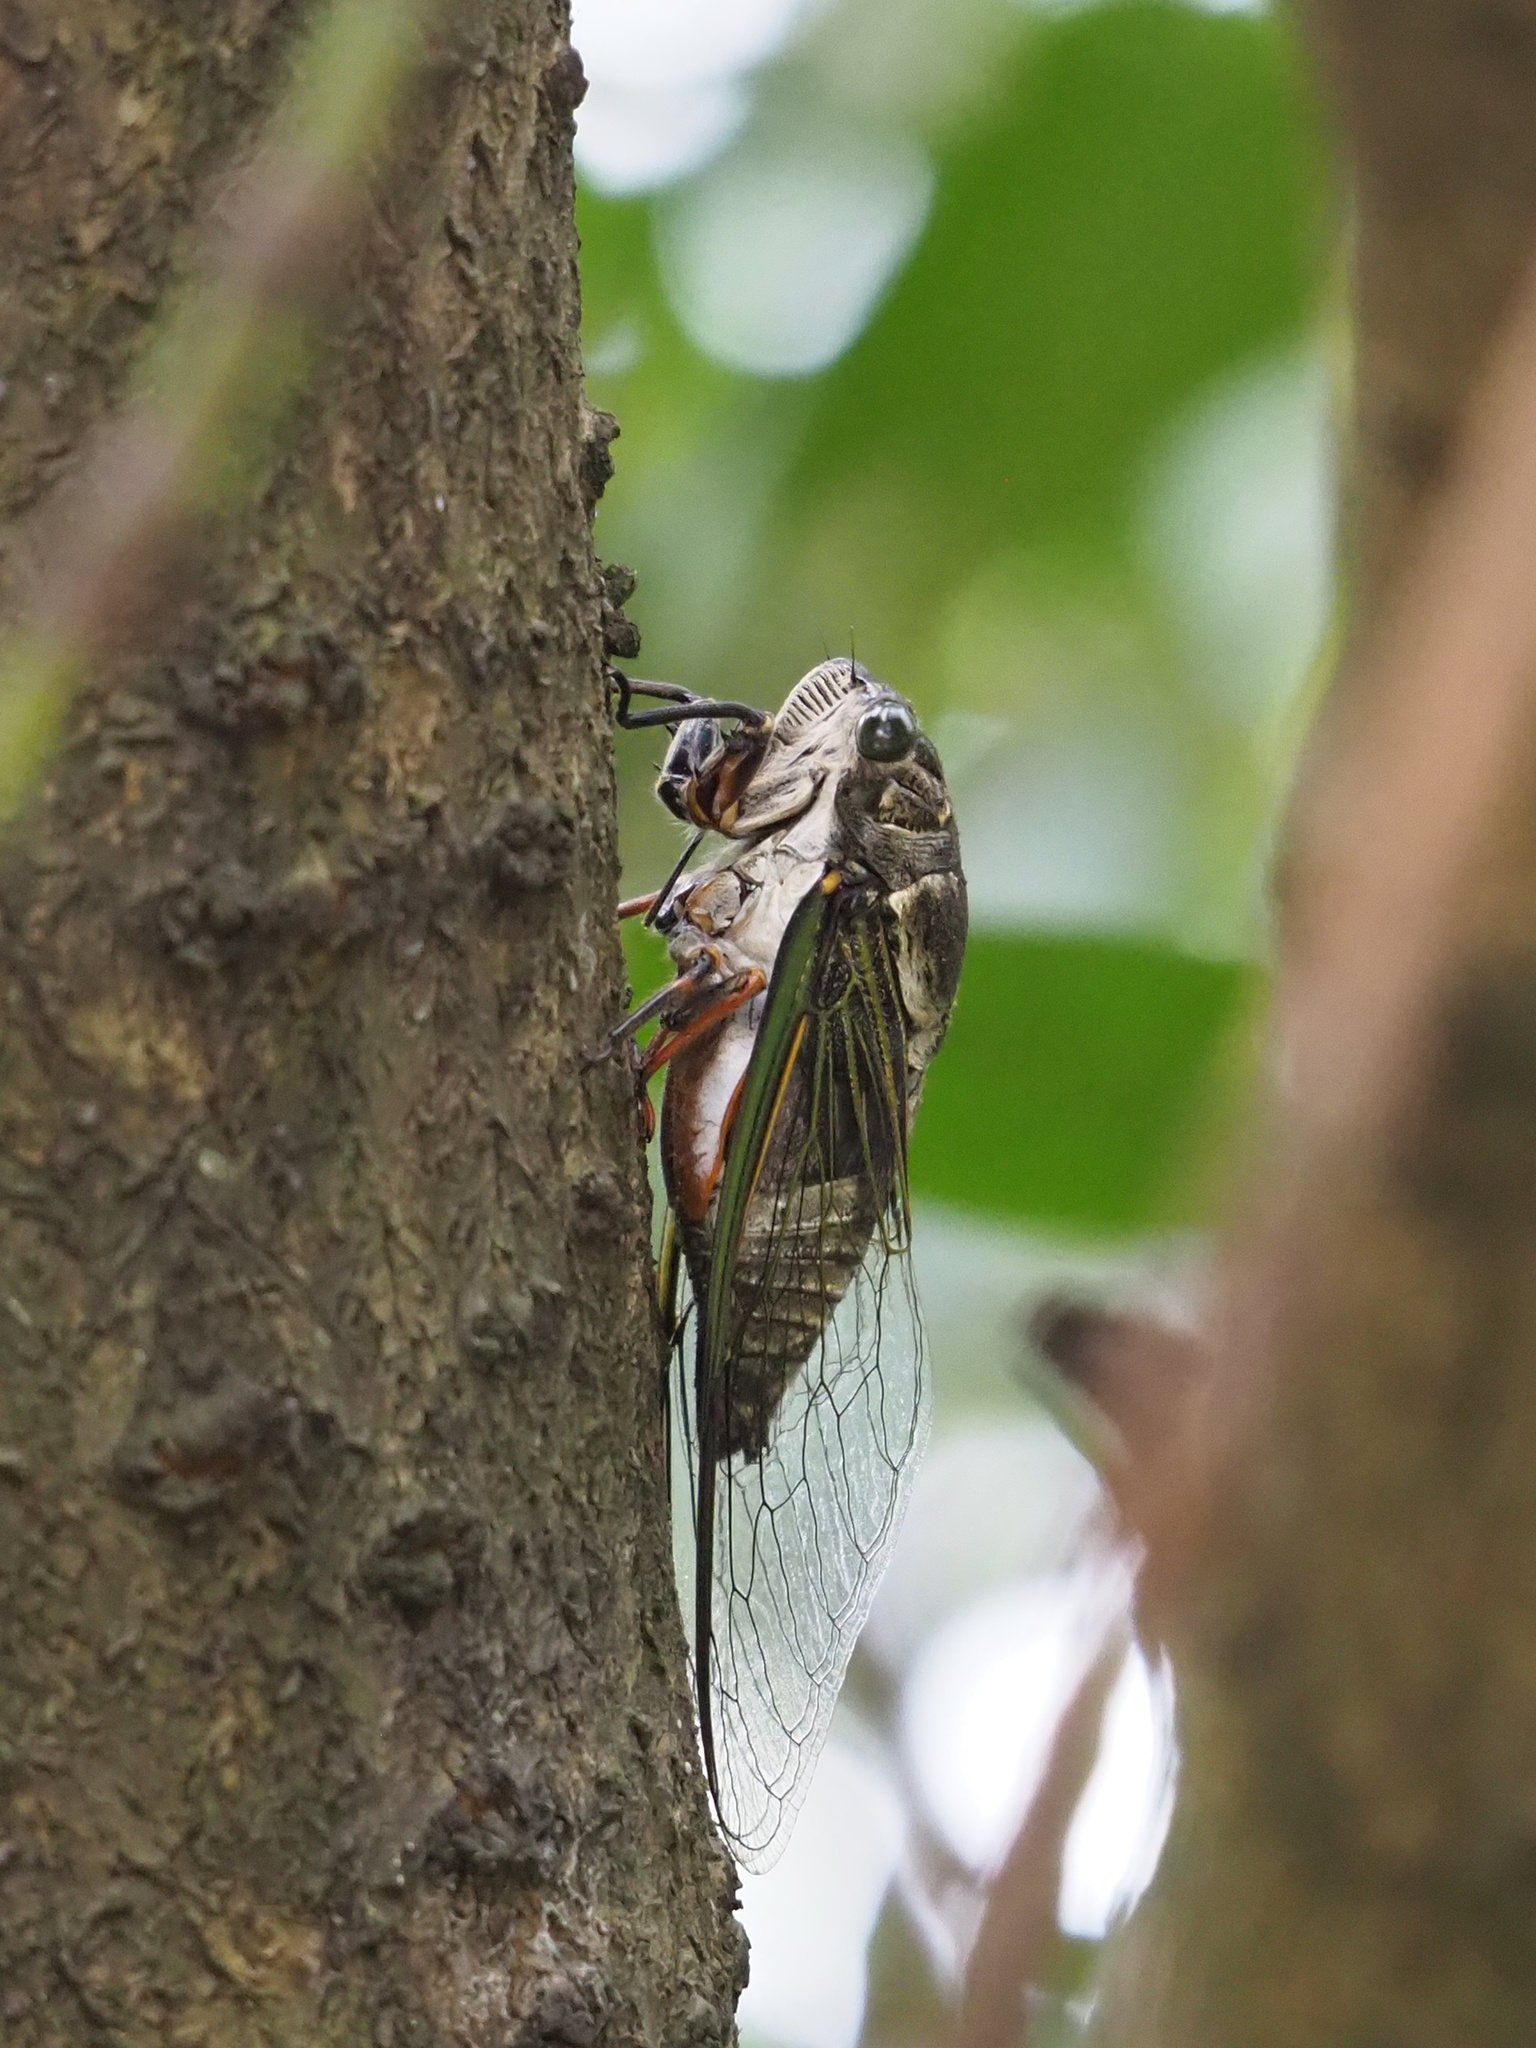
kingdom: Animalia
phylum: Arthropoda
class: Insecta
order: Hemiptera
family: Cicadidae
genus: Cryptotympana
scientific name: Cryptotympana takasagona
